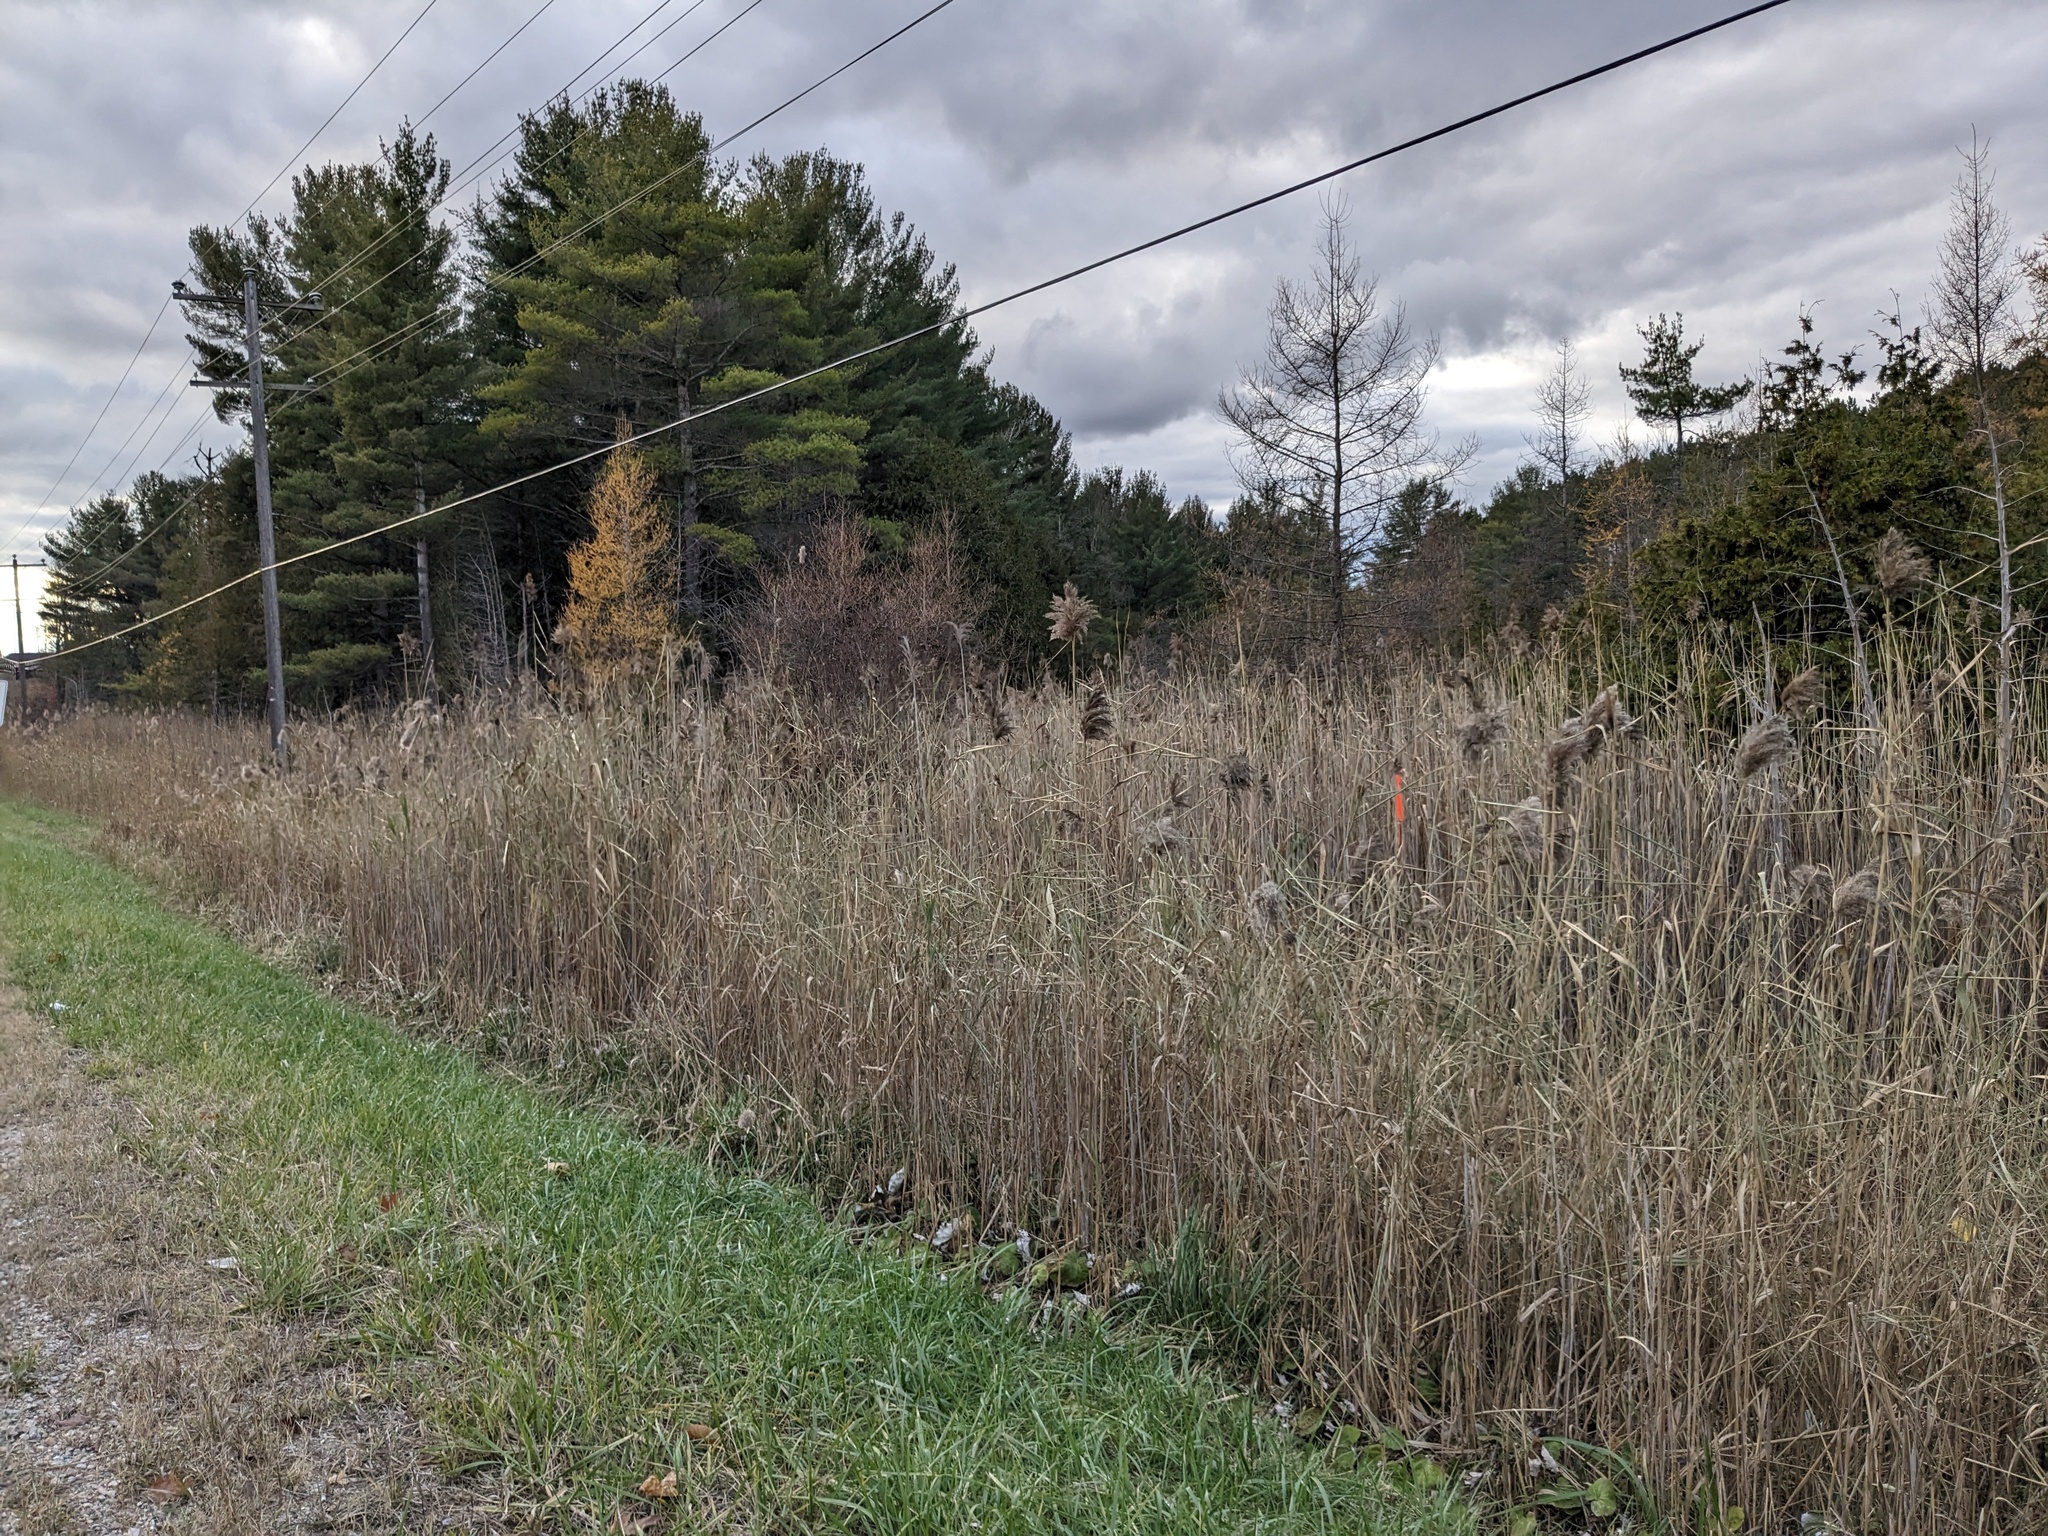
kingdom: Plantae
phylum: Tracheophyta
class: Liliopsida
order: Poales
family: Poaceae
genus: Phragmites
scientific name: Phragmites australis
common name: Common reed
